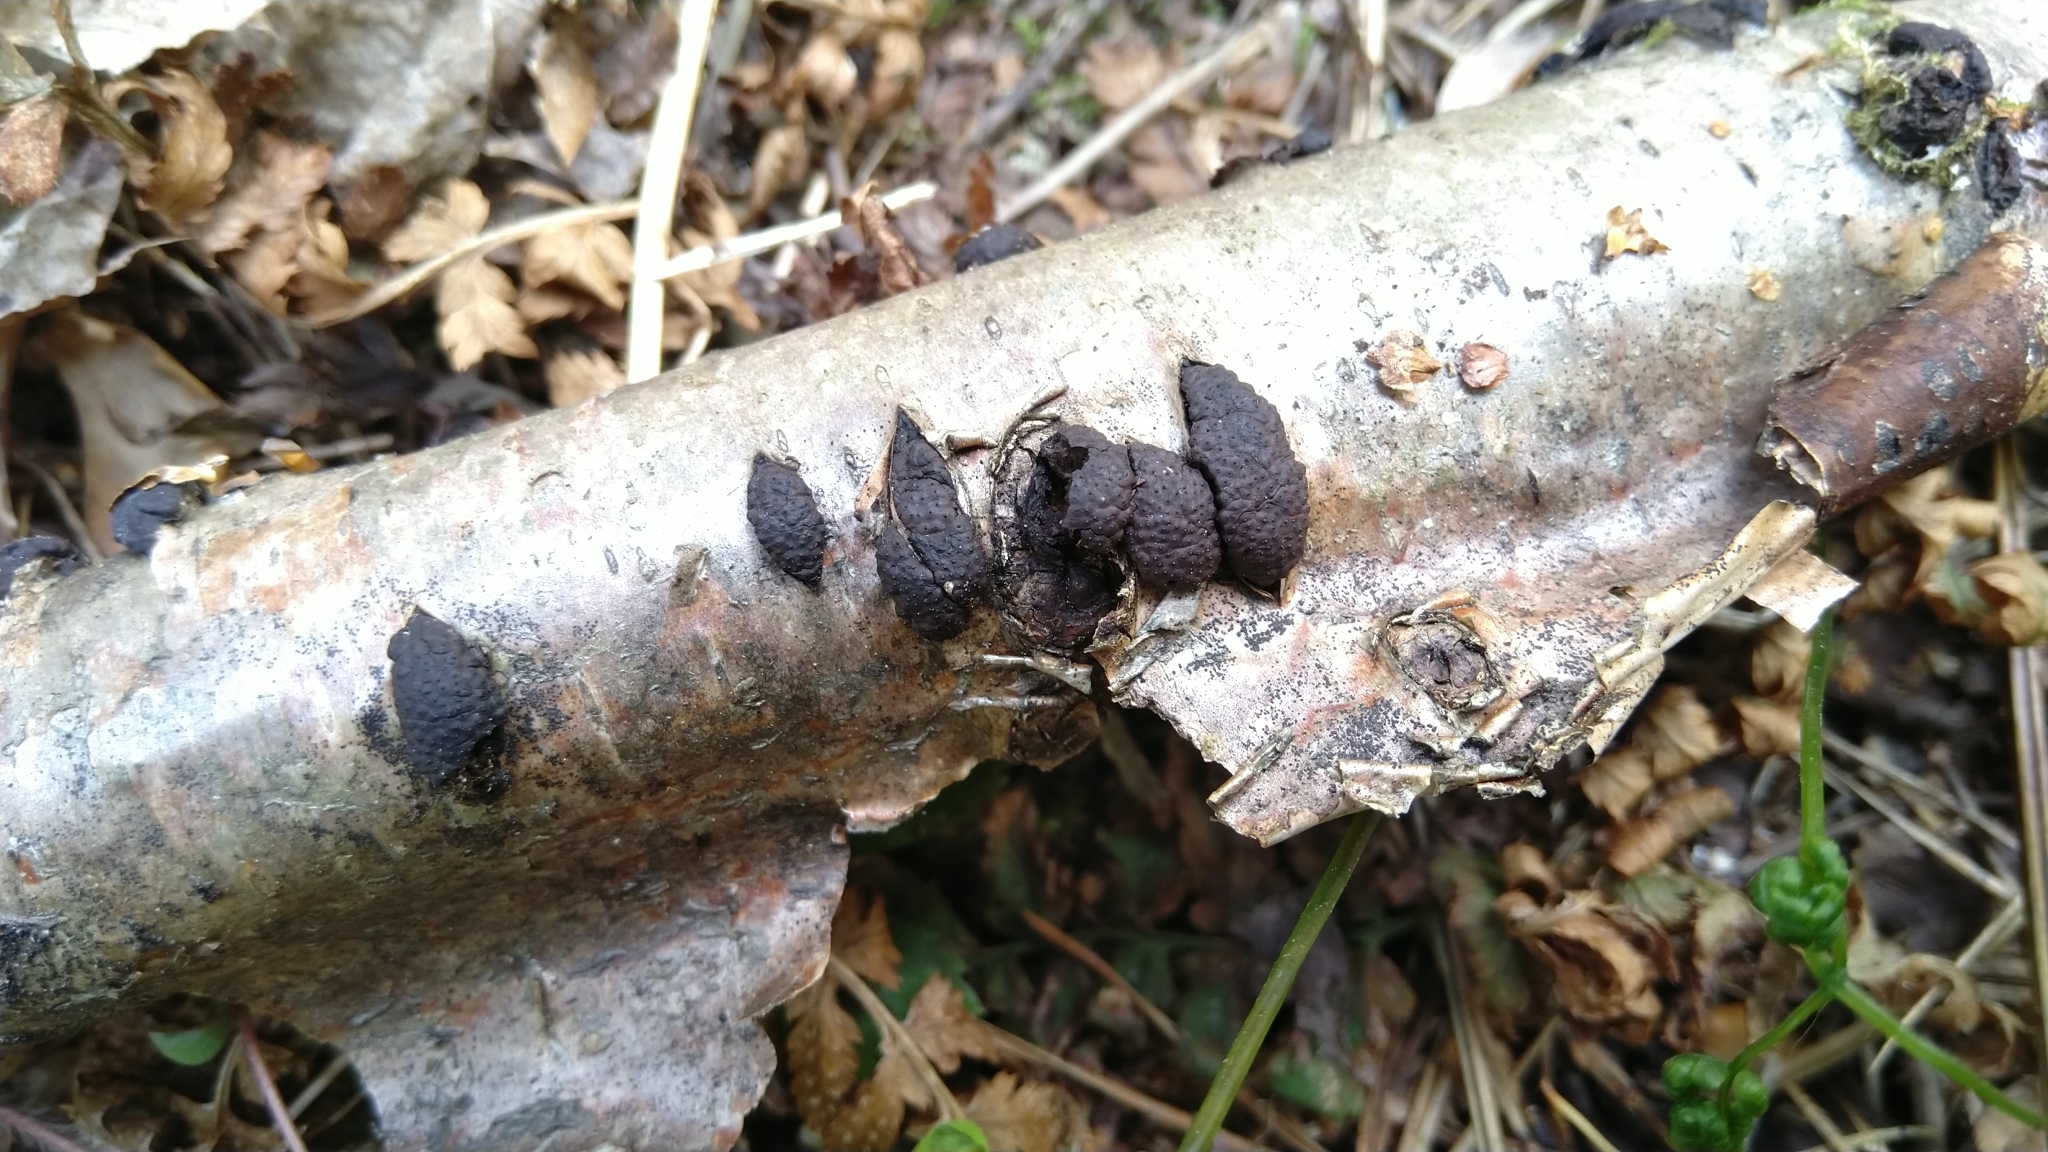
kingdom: Fungi
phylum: Ascomycota
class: Sordariomycetes
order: Xylariales
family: Hypoxylaceae
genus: Jackrogersella
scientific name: Jackrogersella multiformis
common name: Birch woodwart
